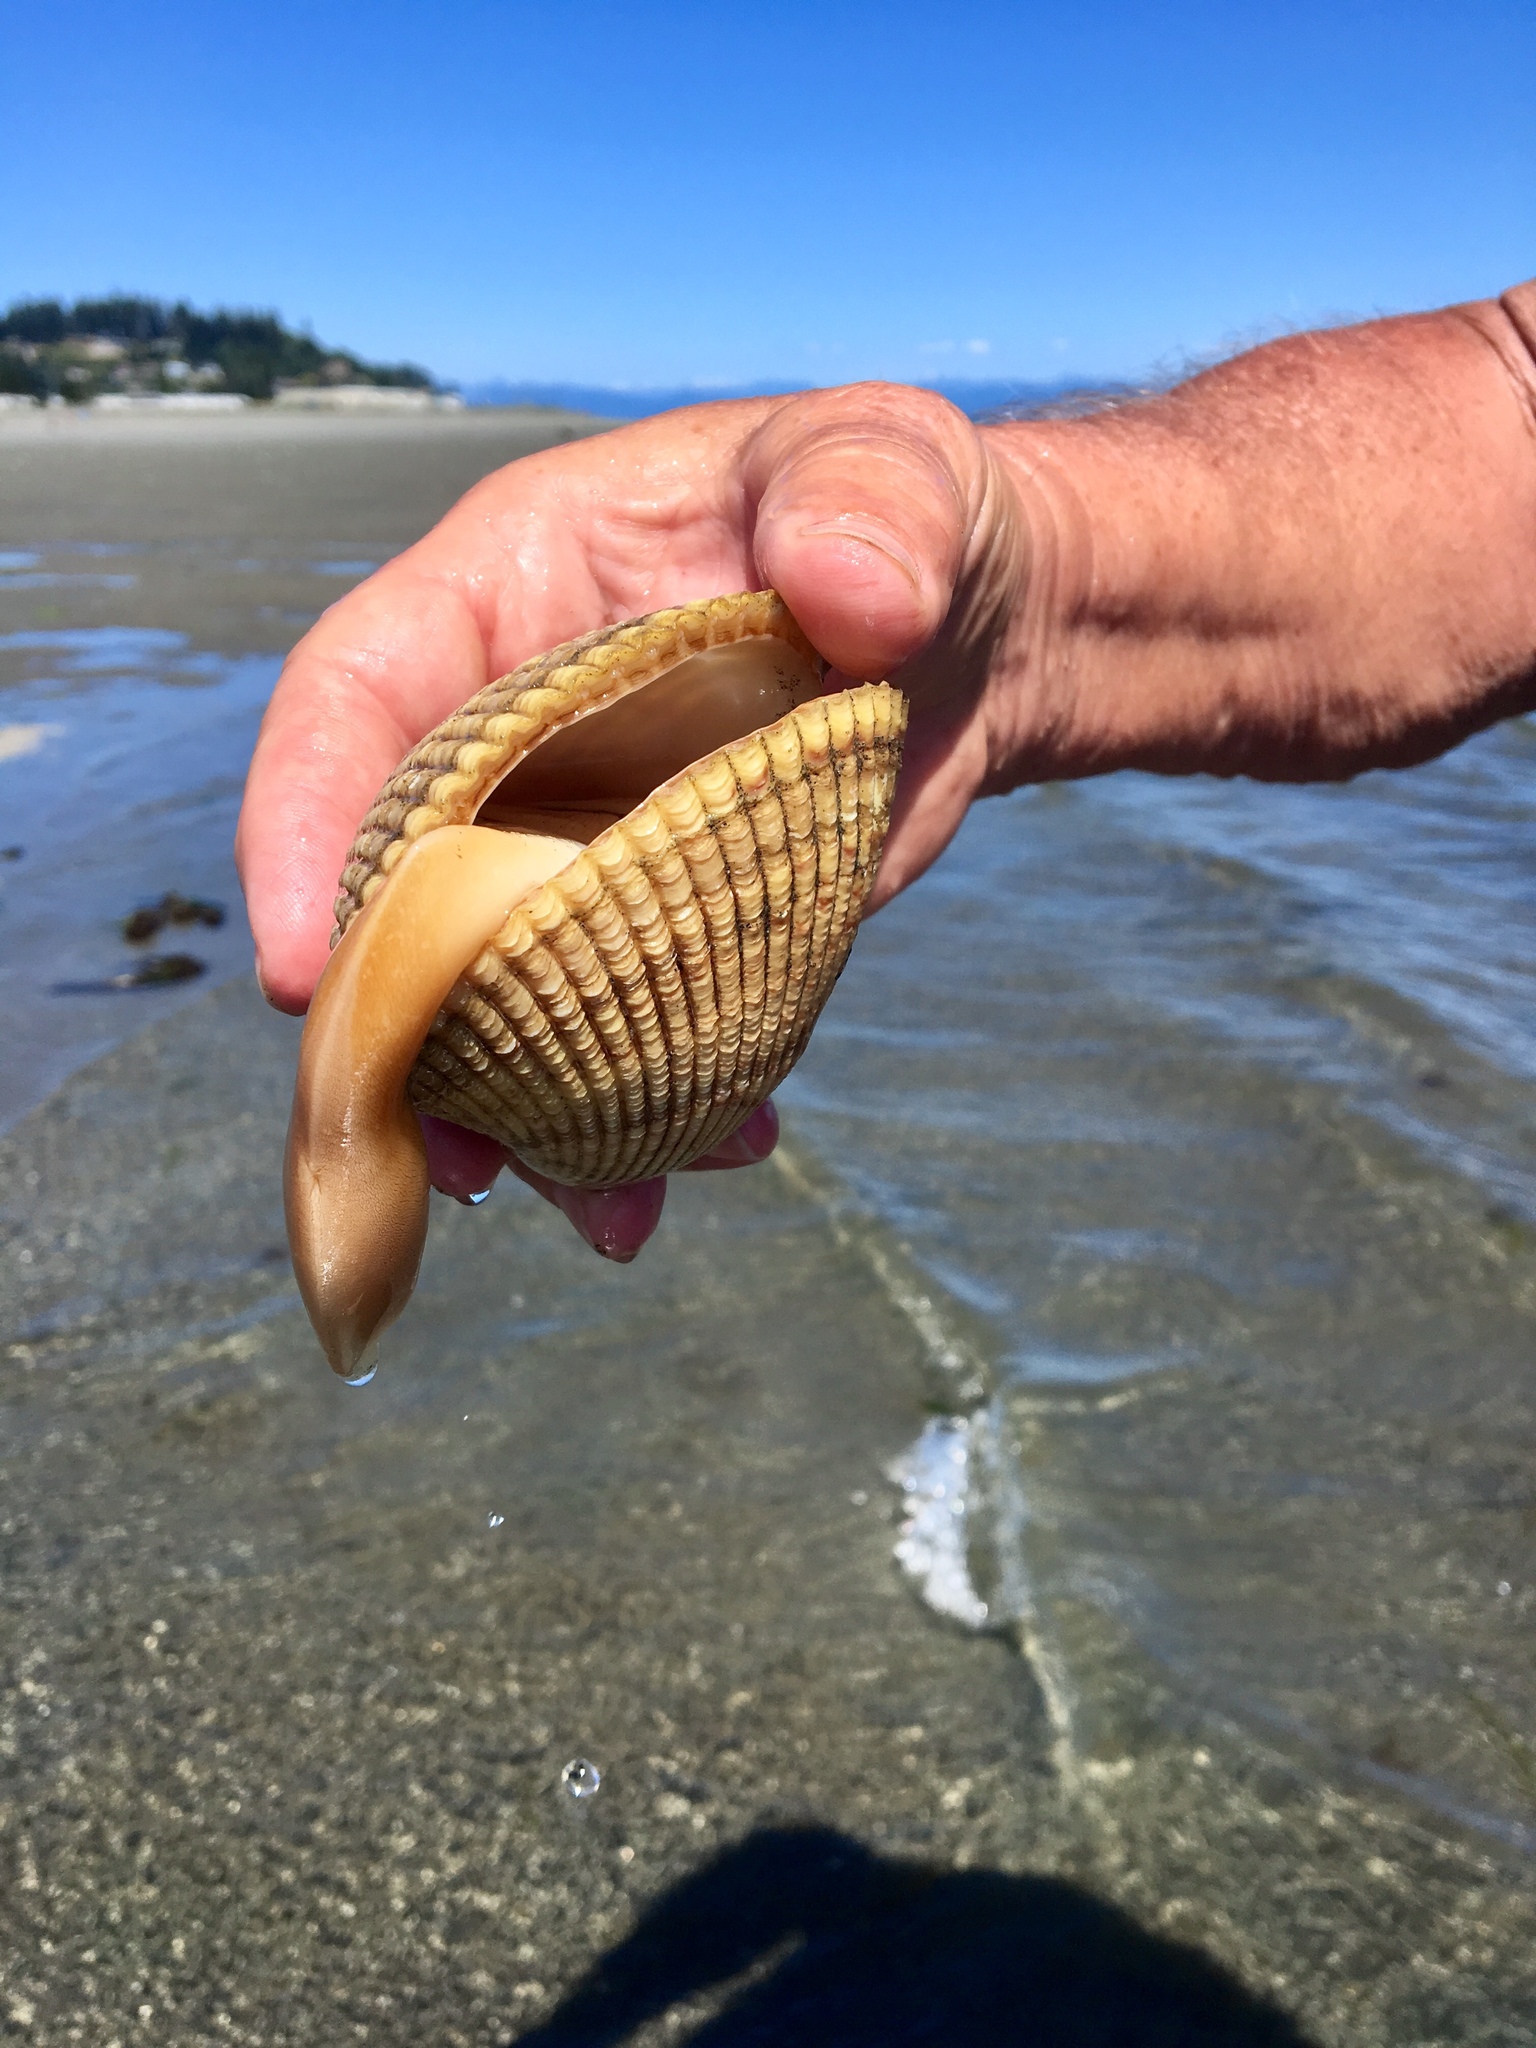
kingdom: Animalia
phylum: Mollusca
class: Bivalvia
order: Cardiida
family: Cardiidae
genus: Clinocardium
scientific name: Clinocardium nuttallii
